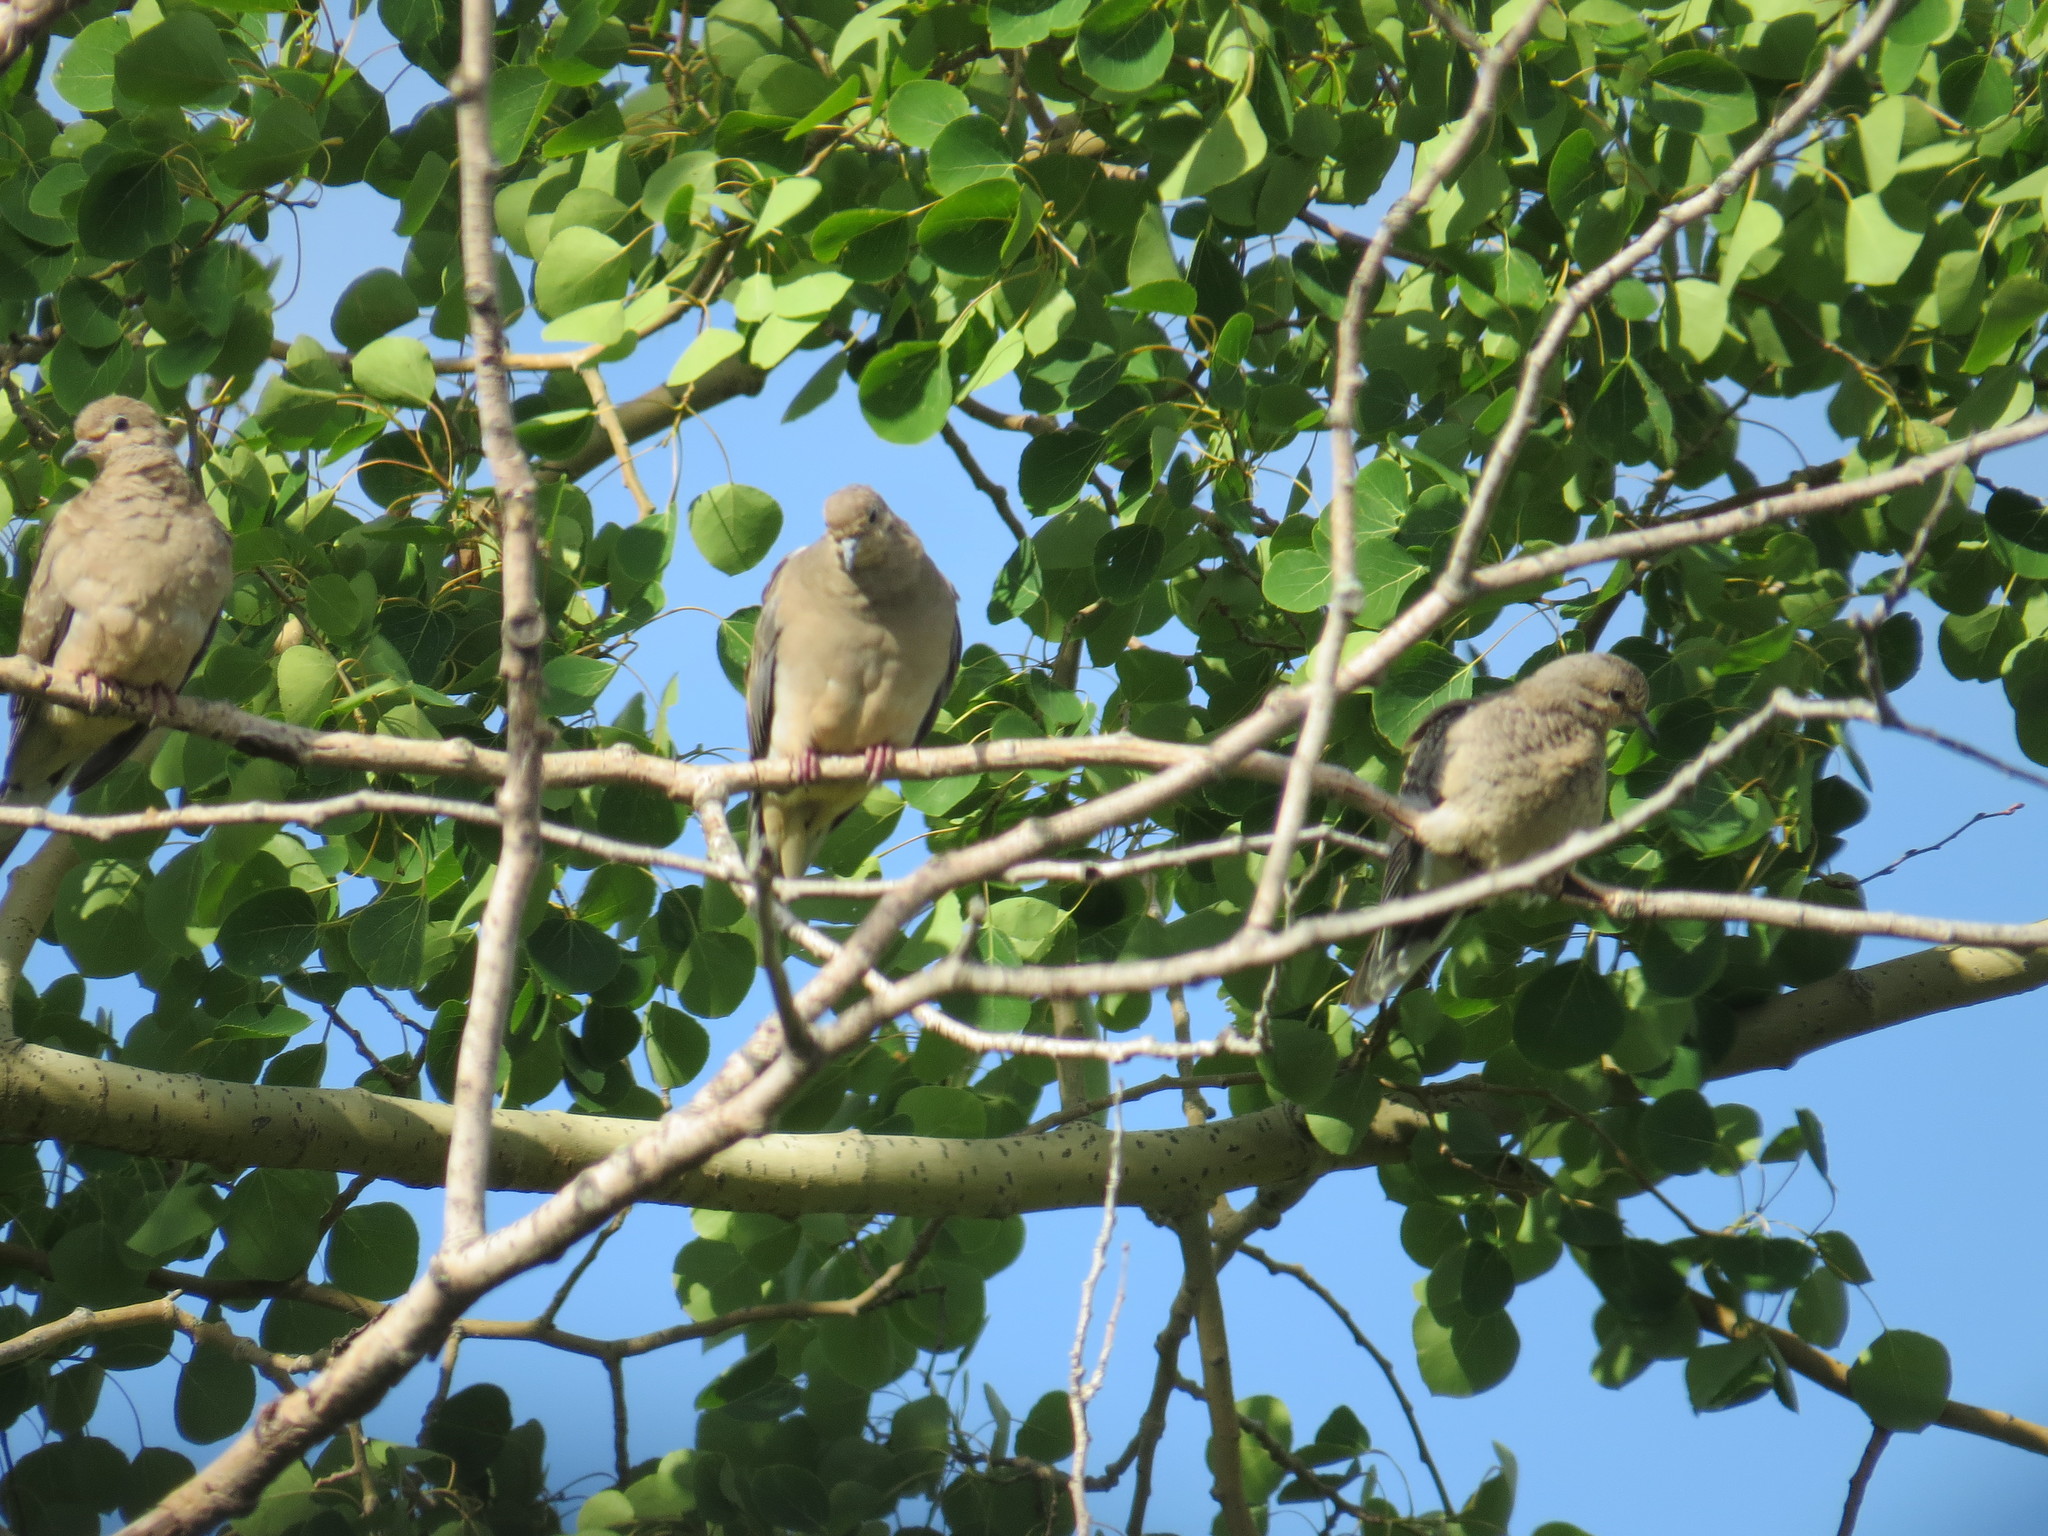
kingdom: Animalia
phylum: Chordata
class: Aves
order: Columbiformes
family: Columbidae
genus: Zenaida
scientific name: Zenaida macroura
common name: Mourning dove
